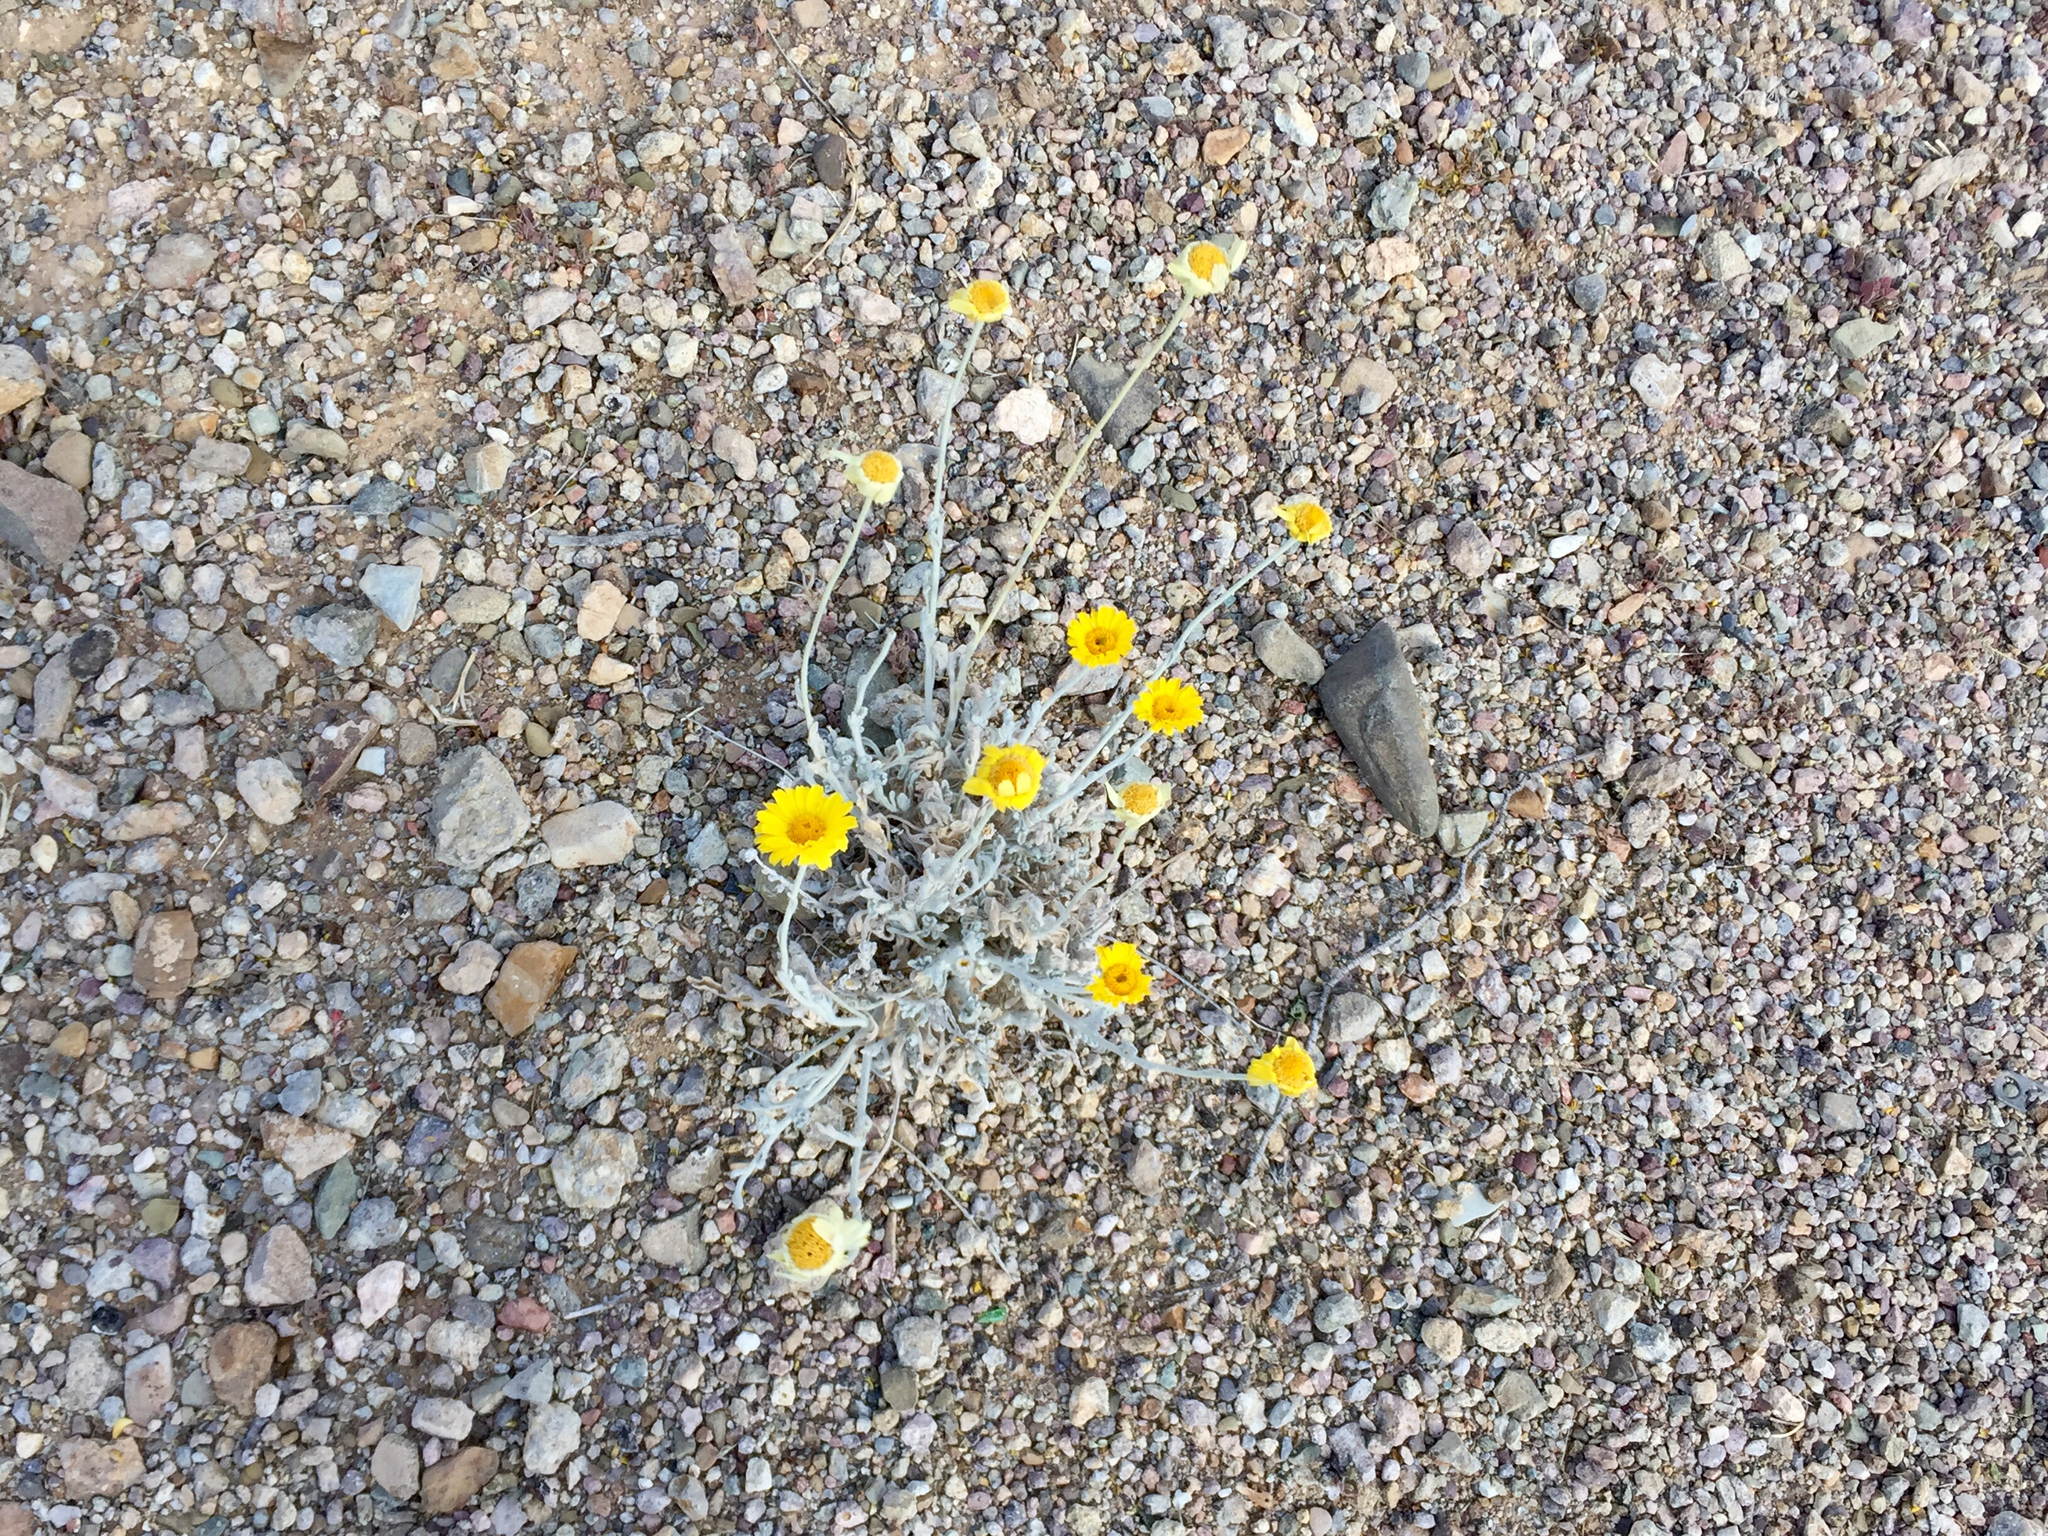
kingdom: Plantae
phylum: Tracheophyta
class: Magnoliopsida
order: Asterales
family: Asteraceae
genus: Baileya
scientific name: Baileya multiradiata
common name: Desert-marigold
